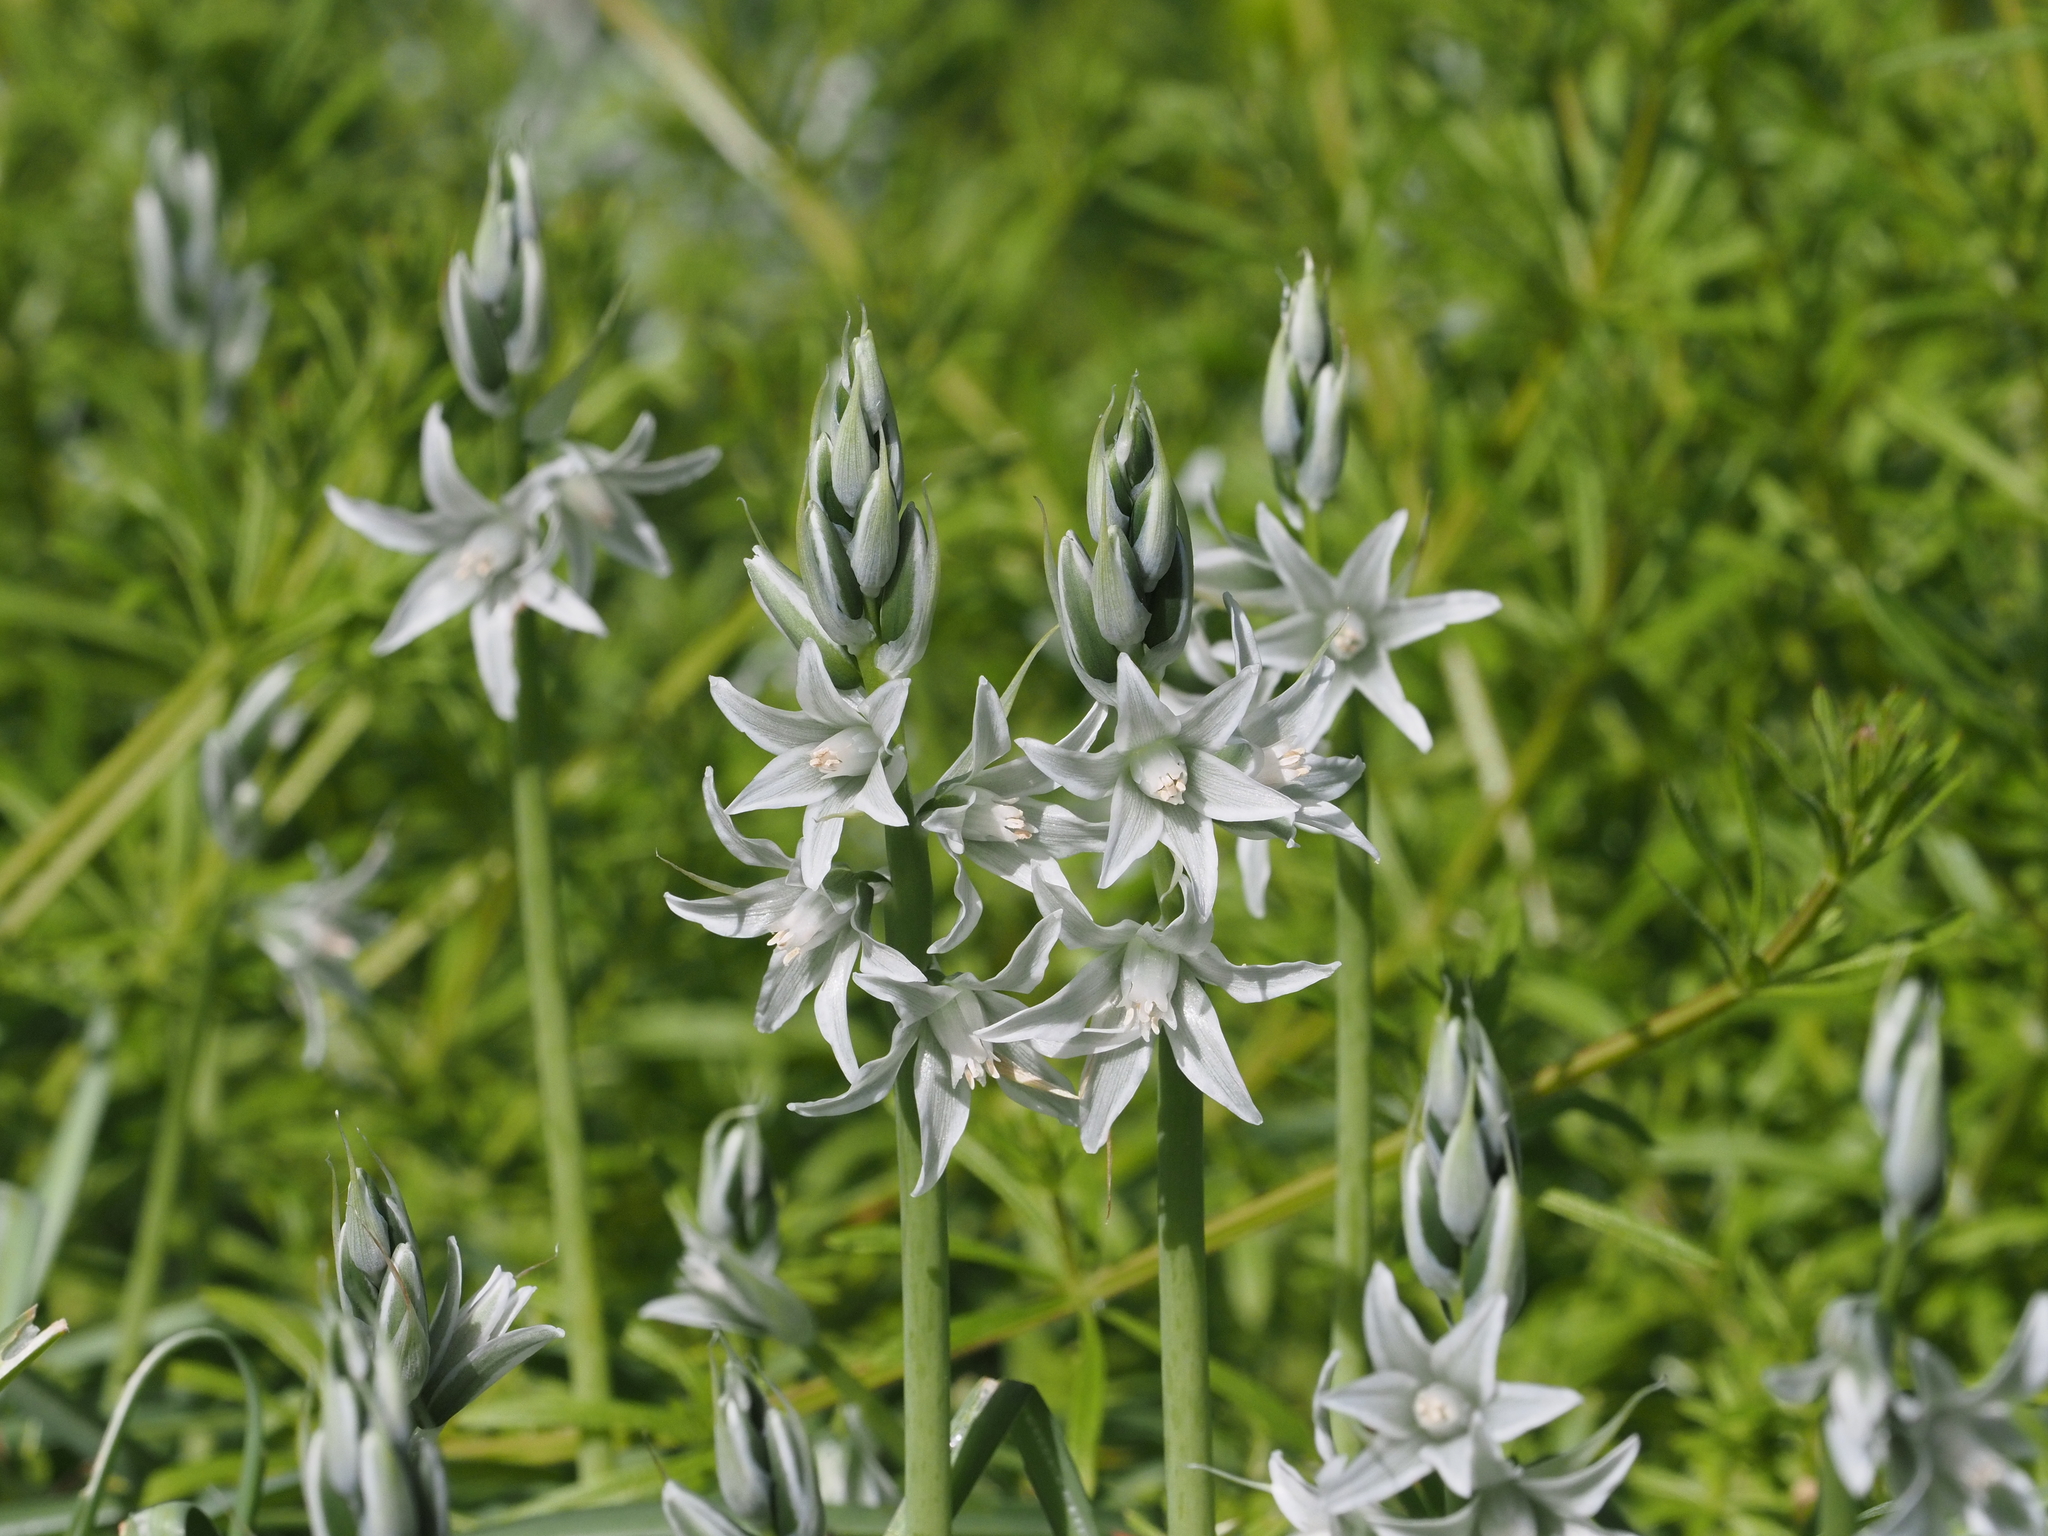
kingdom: Plantae
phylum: Tracheophyta
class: Liliopsida
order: Asparagales
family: Asparagaceae
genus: Ornithogalum
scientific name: Ornithogalum nutans
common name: Drooping star-of-bethlehem
